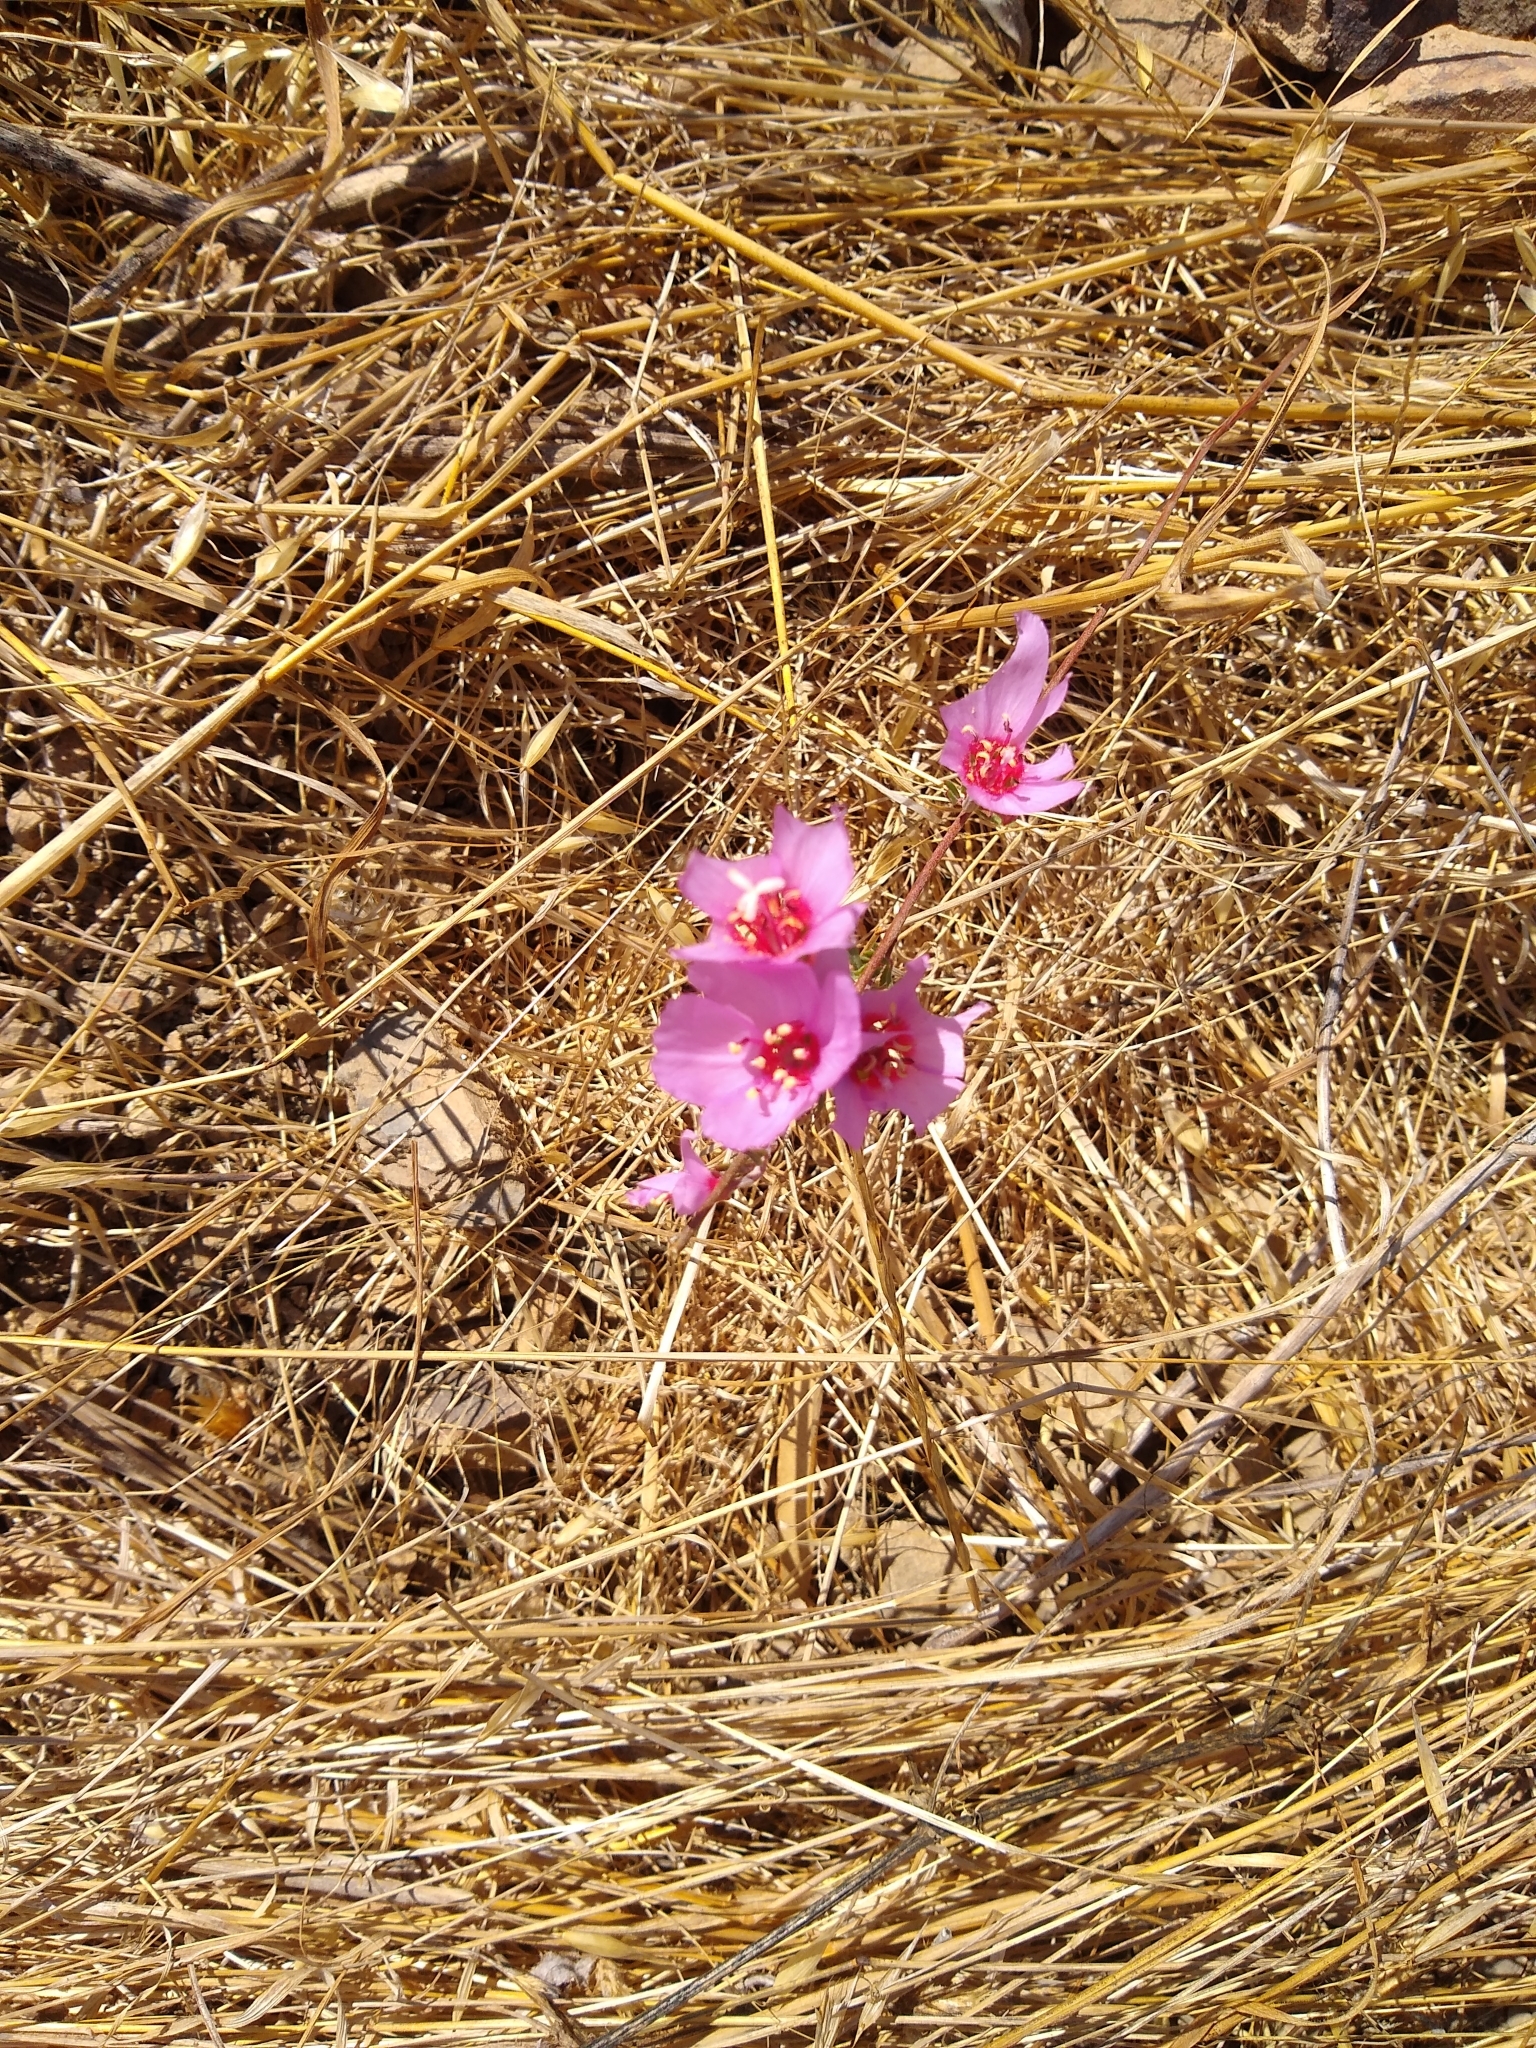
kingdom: Plantae
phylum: Tracheophyta
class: Magnoliopsida
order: Myrtales
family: Onagraceae
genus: Clarkia
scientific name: Clarkia rubicunda
